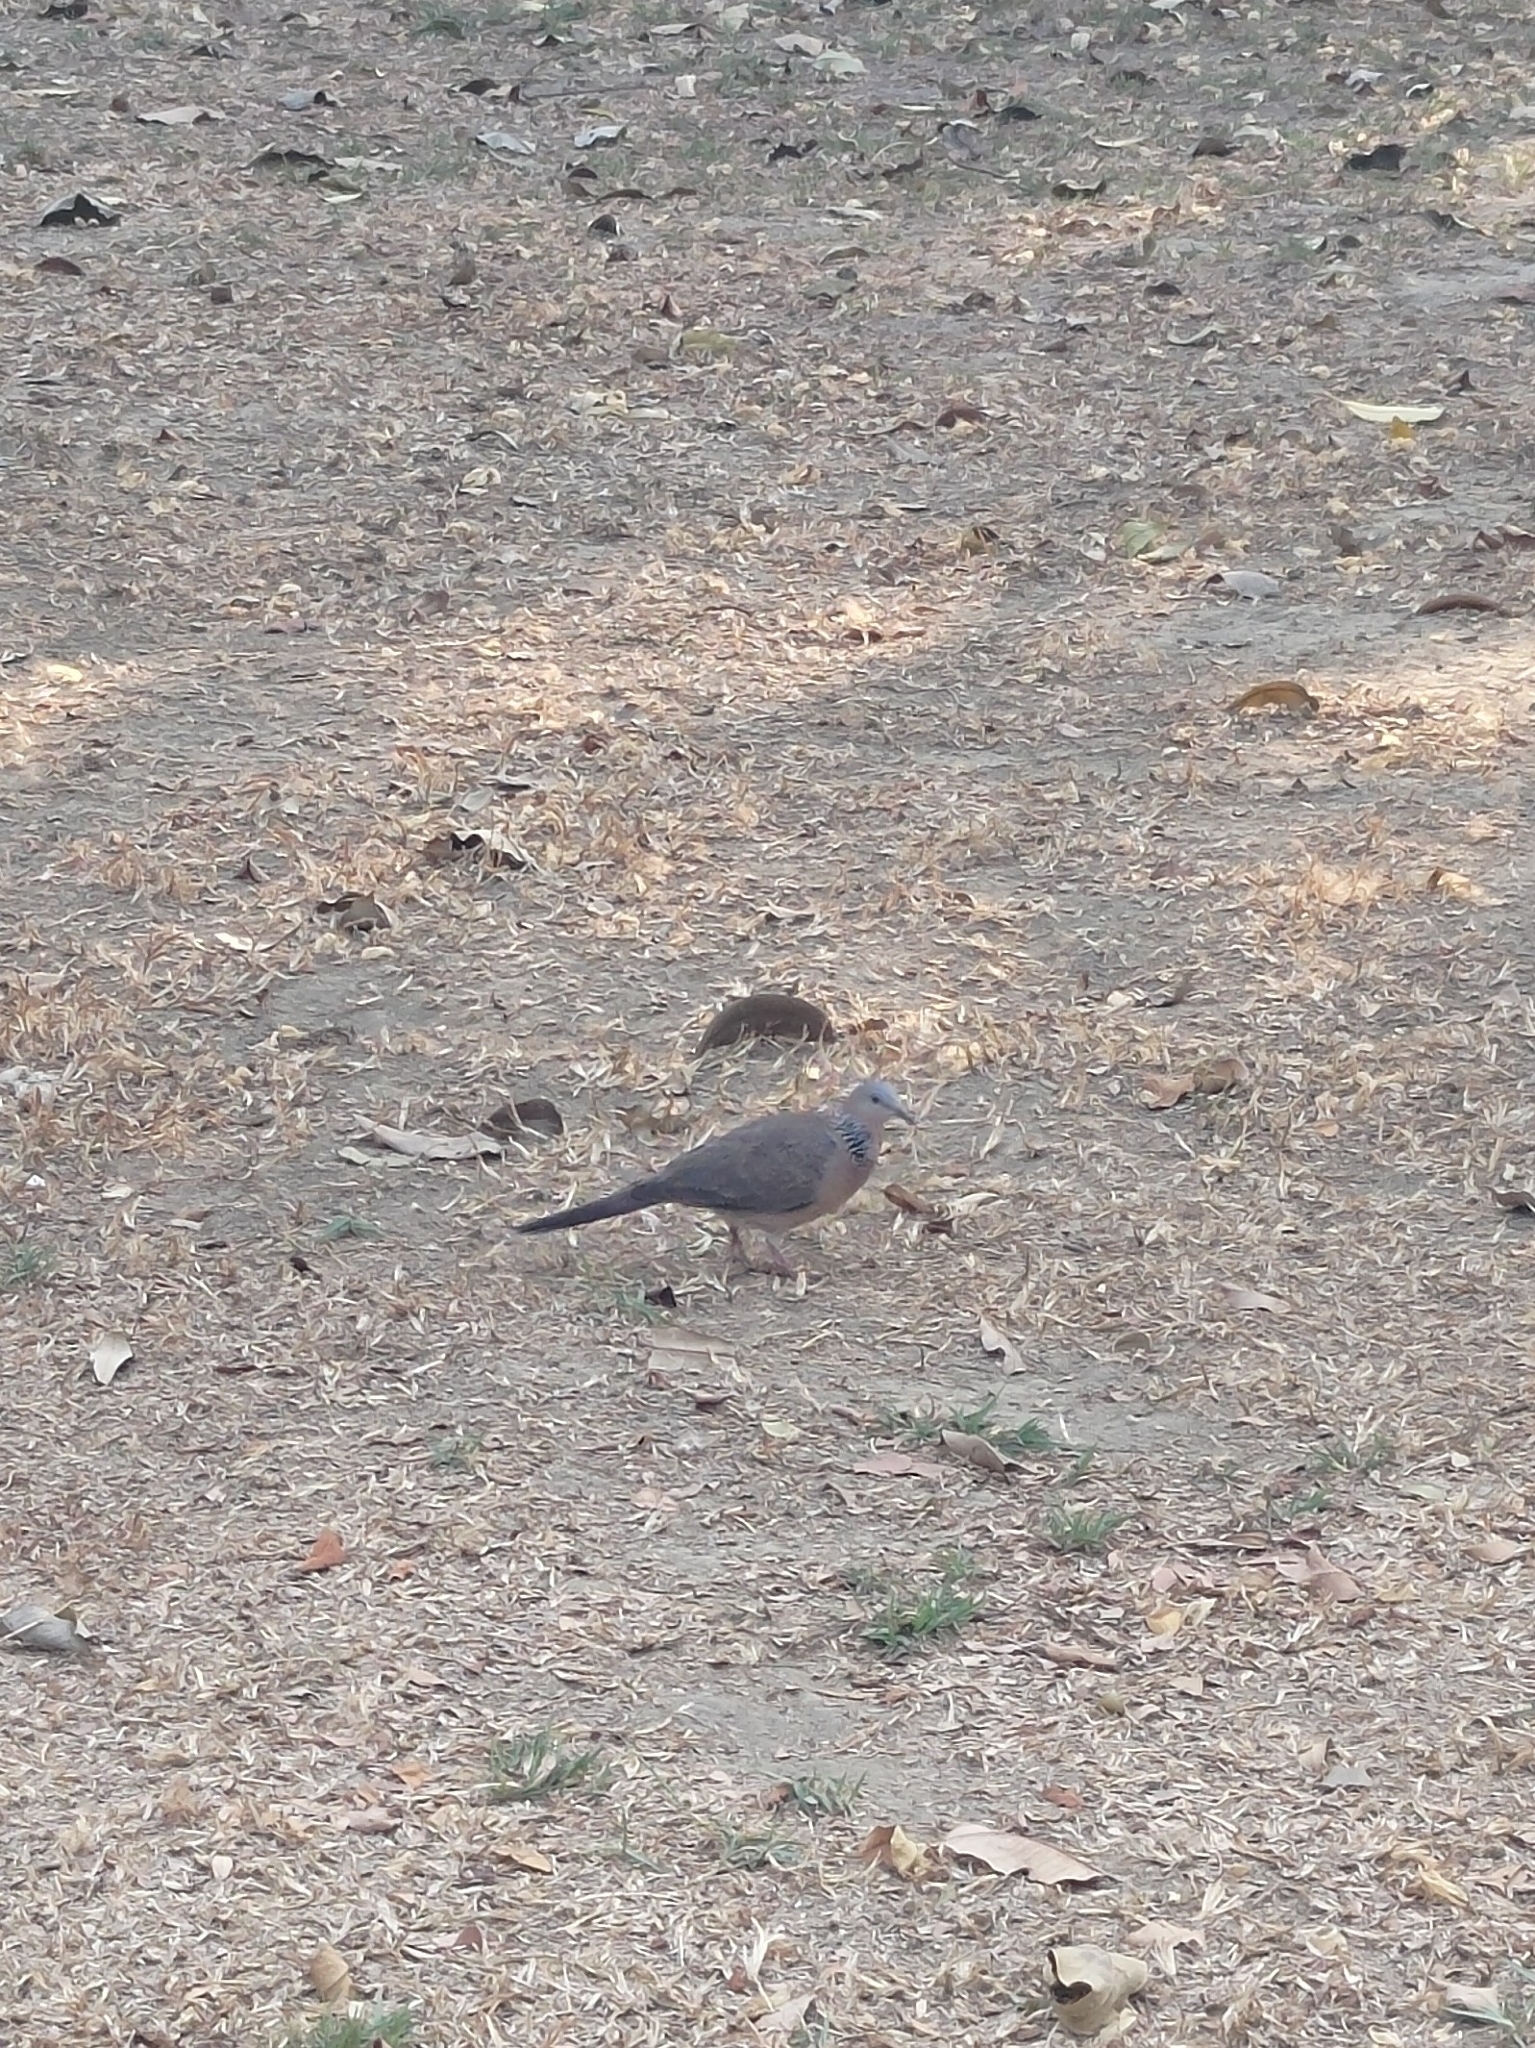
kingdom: Animalia
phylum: Chordata
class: Aves
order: Columbiformes
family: Columbidae
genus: Spilopelia
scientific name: Spilopelia chinensis
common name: Spotted dove
